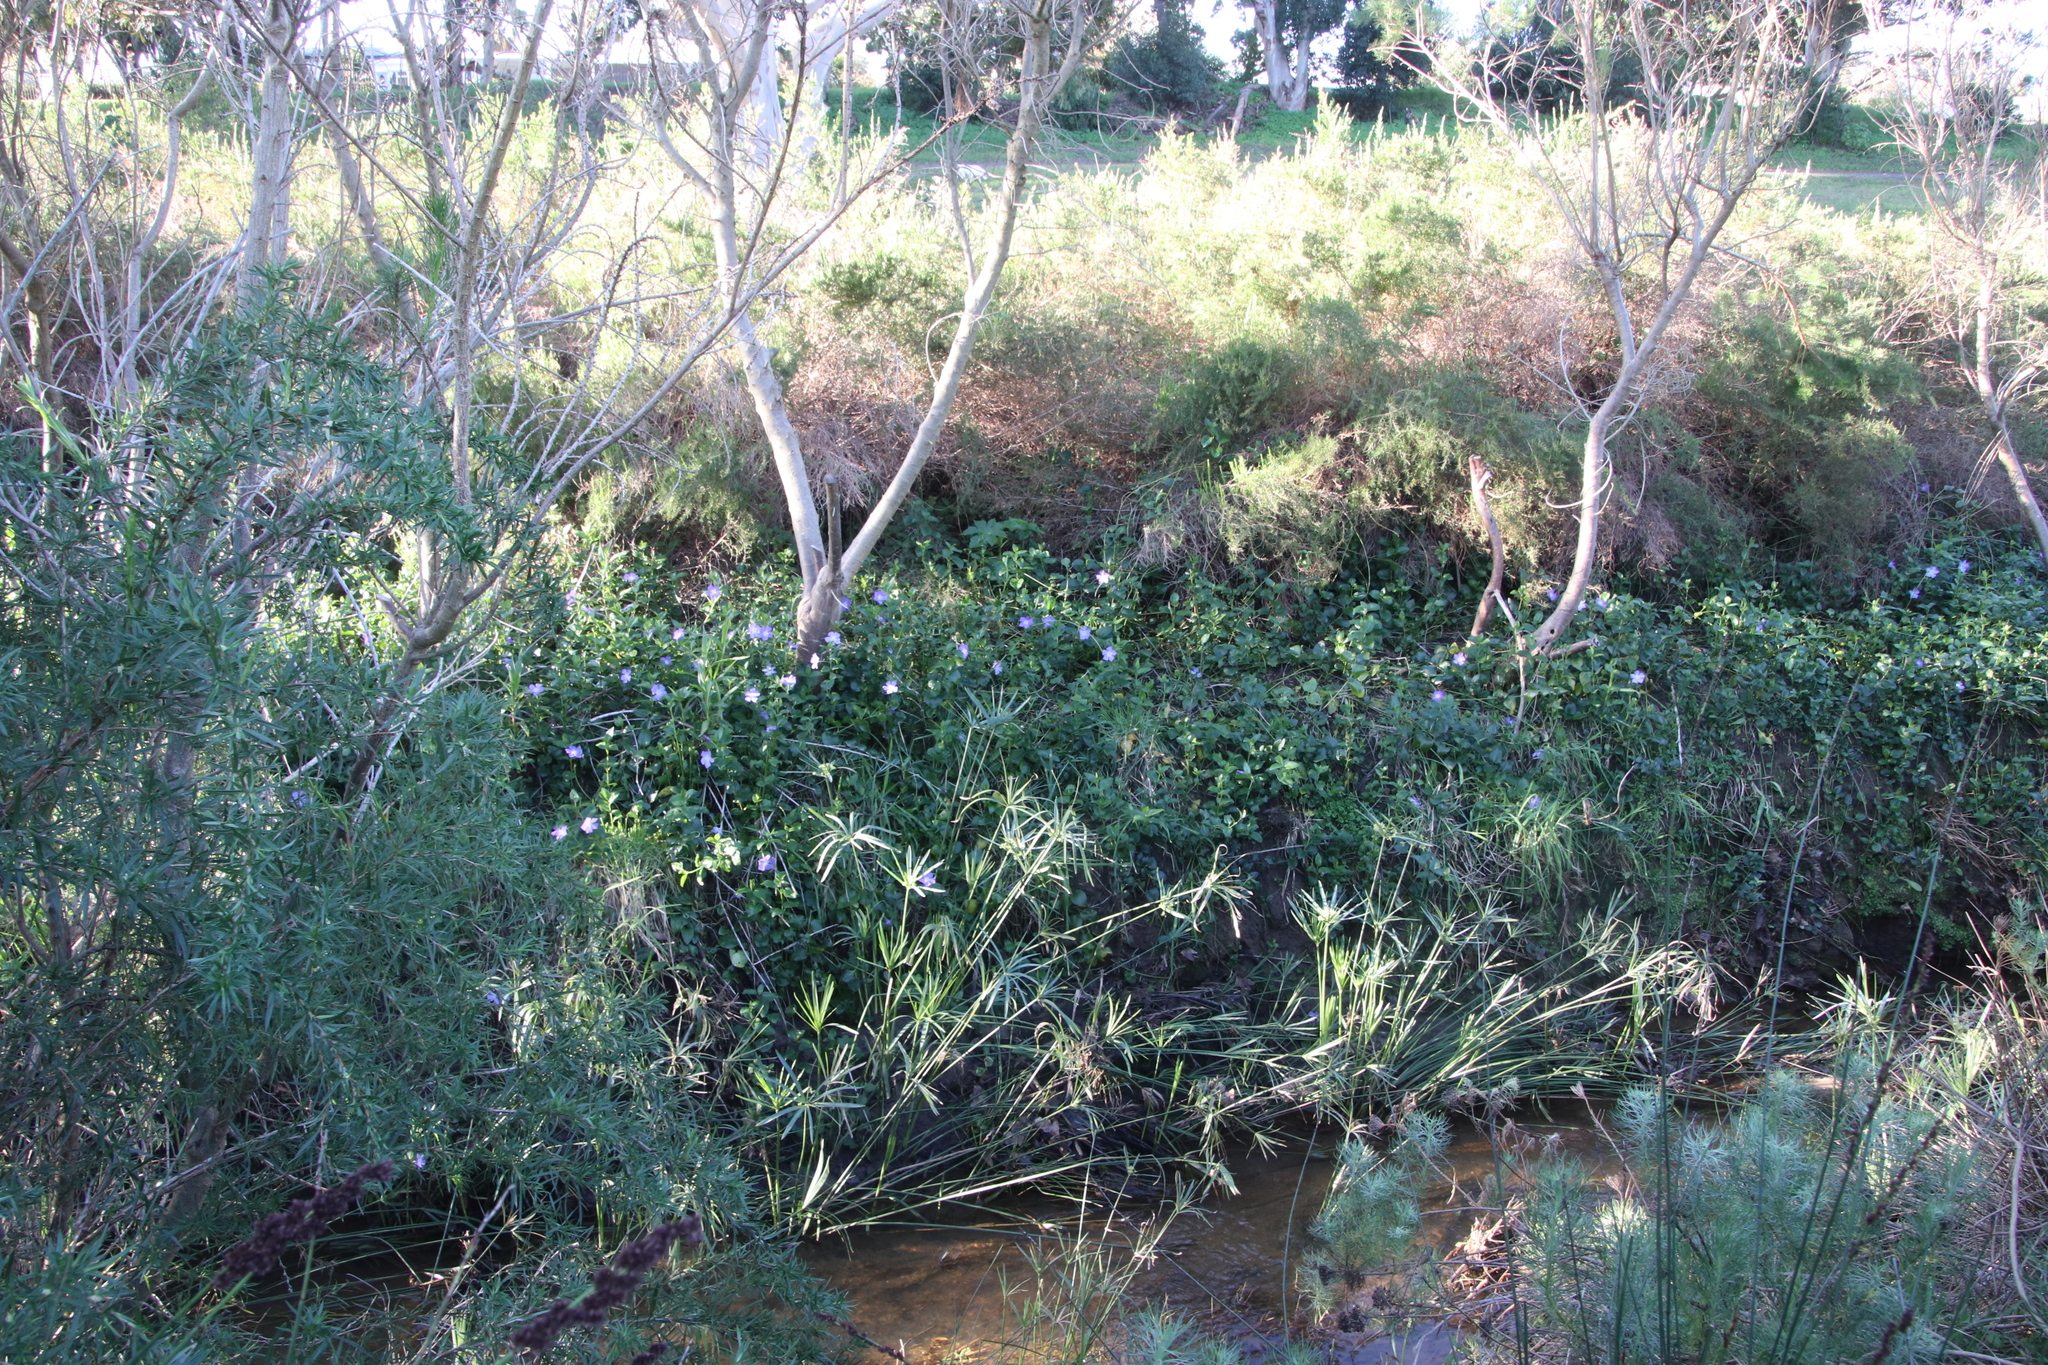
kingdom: Plantae
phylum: Tracheophyta
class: Magnoliopsida
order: Gentianales
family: Apocynaceae
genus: Vinca
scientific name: Vinca major
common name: Greater periwinkle
